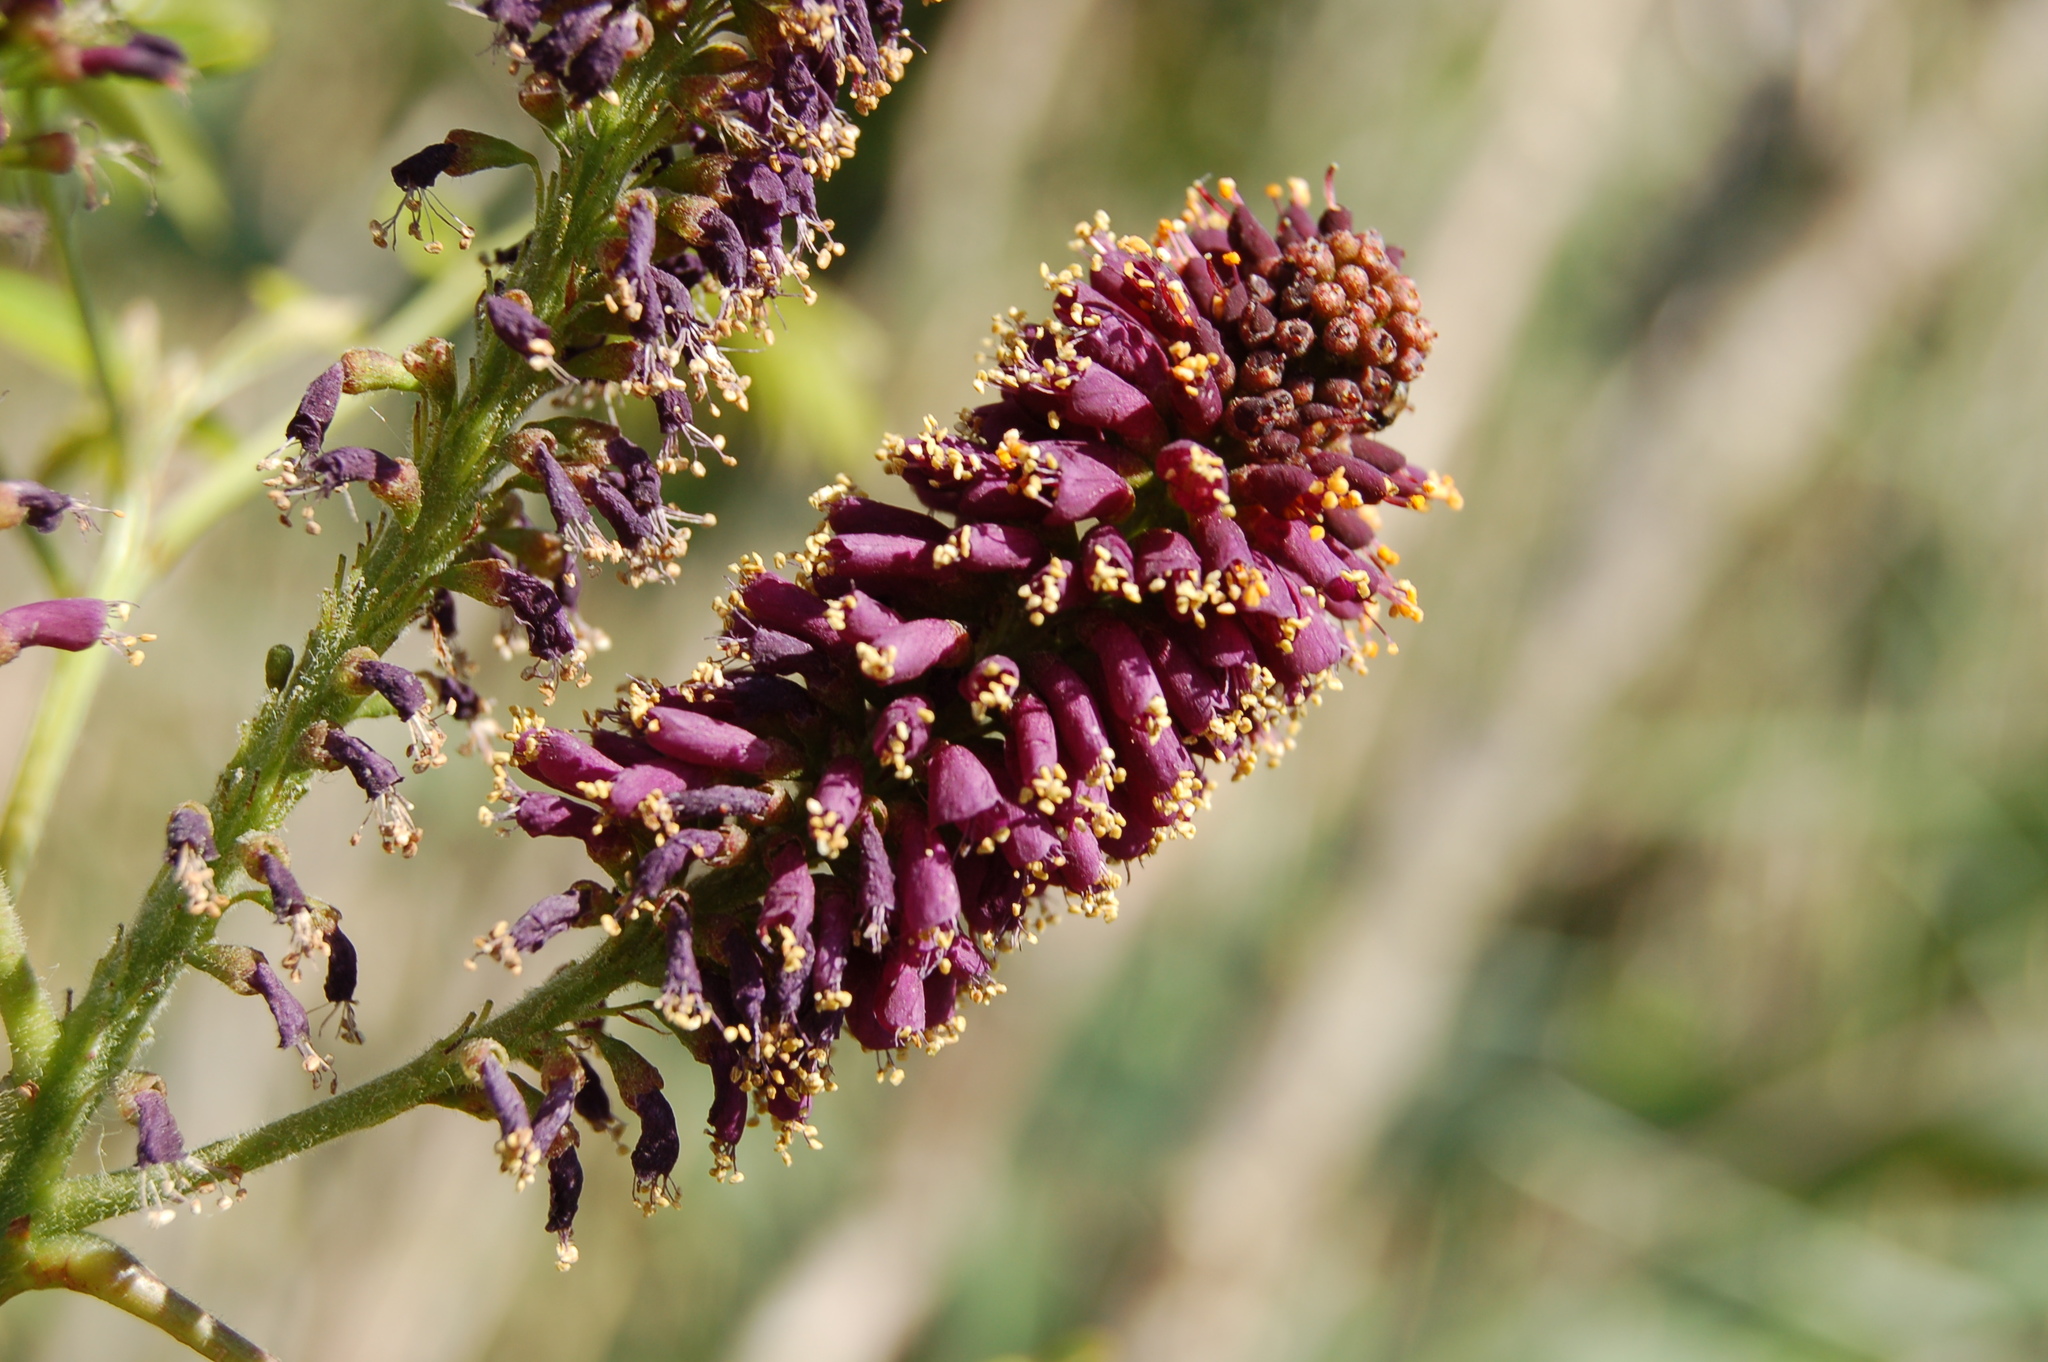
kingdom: Plantae
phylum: Tracheophyta
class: Magnoliopsida
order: Fabales
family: Fabaceae
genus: Amorpha
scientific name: Amorpha fruticosa
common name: False indigo
